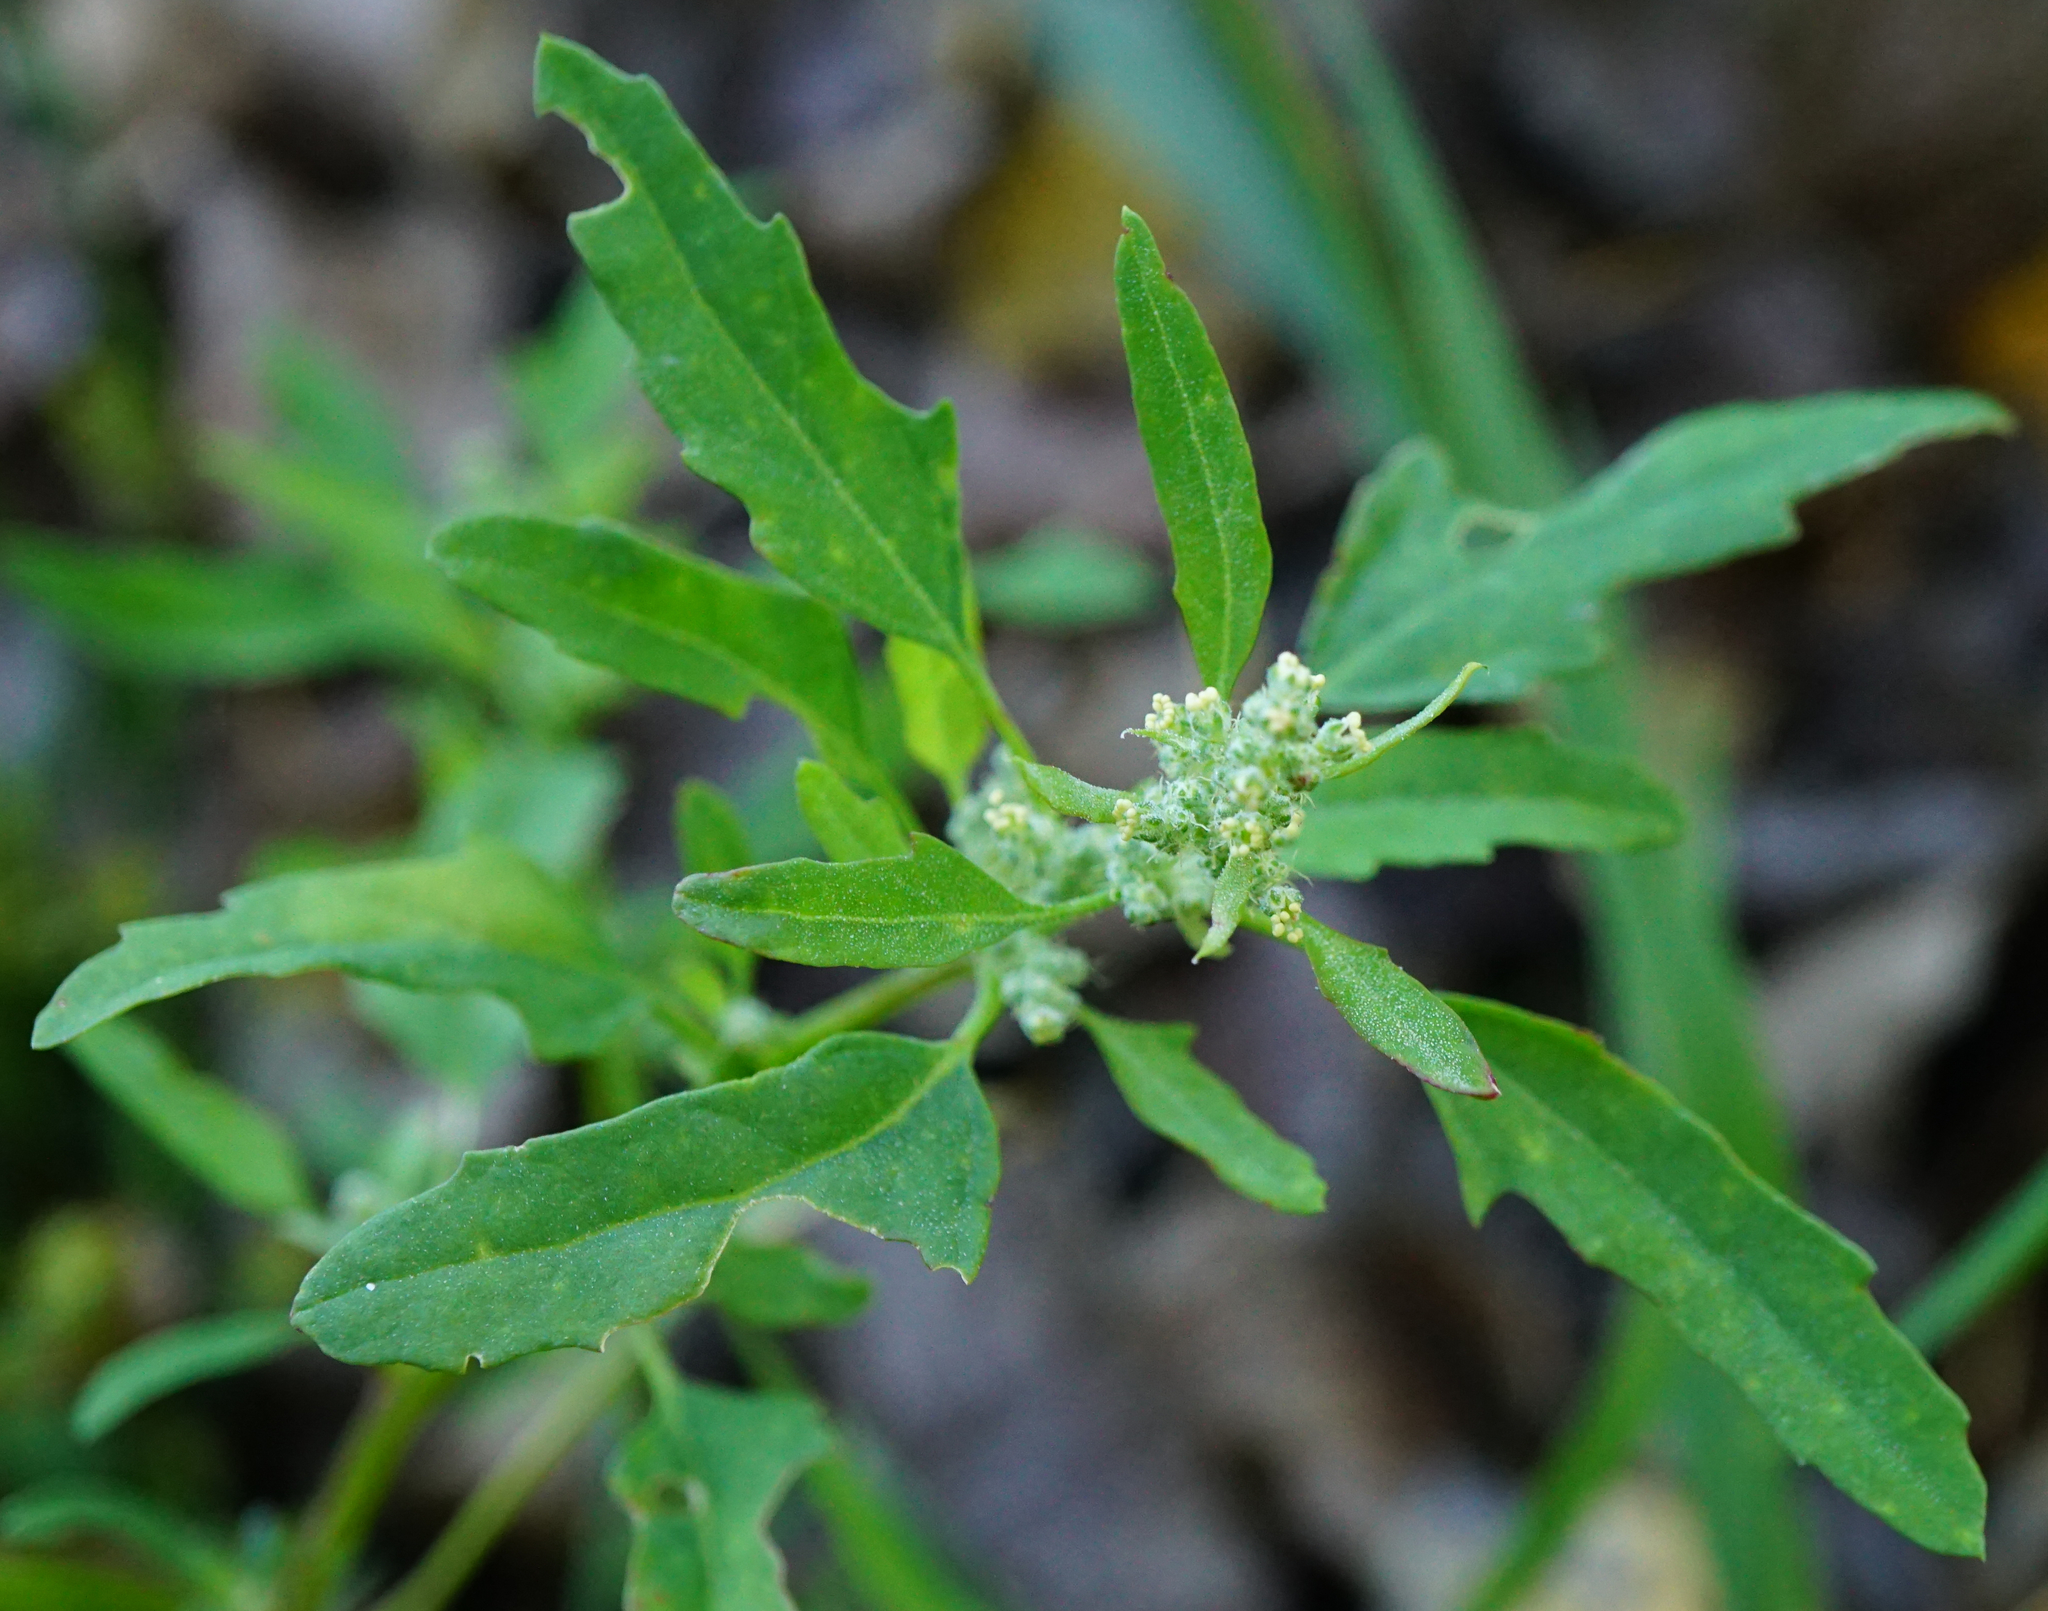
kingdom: Plantae
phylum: Tracheophyta
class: Magnoliopsida
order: Caryophyllales
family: Amaranthaceae
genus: Chenopodium
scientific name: Chenopodium ficifolium
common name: Fig-leaved goosefoot
